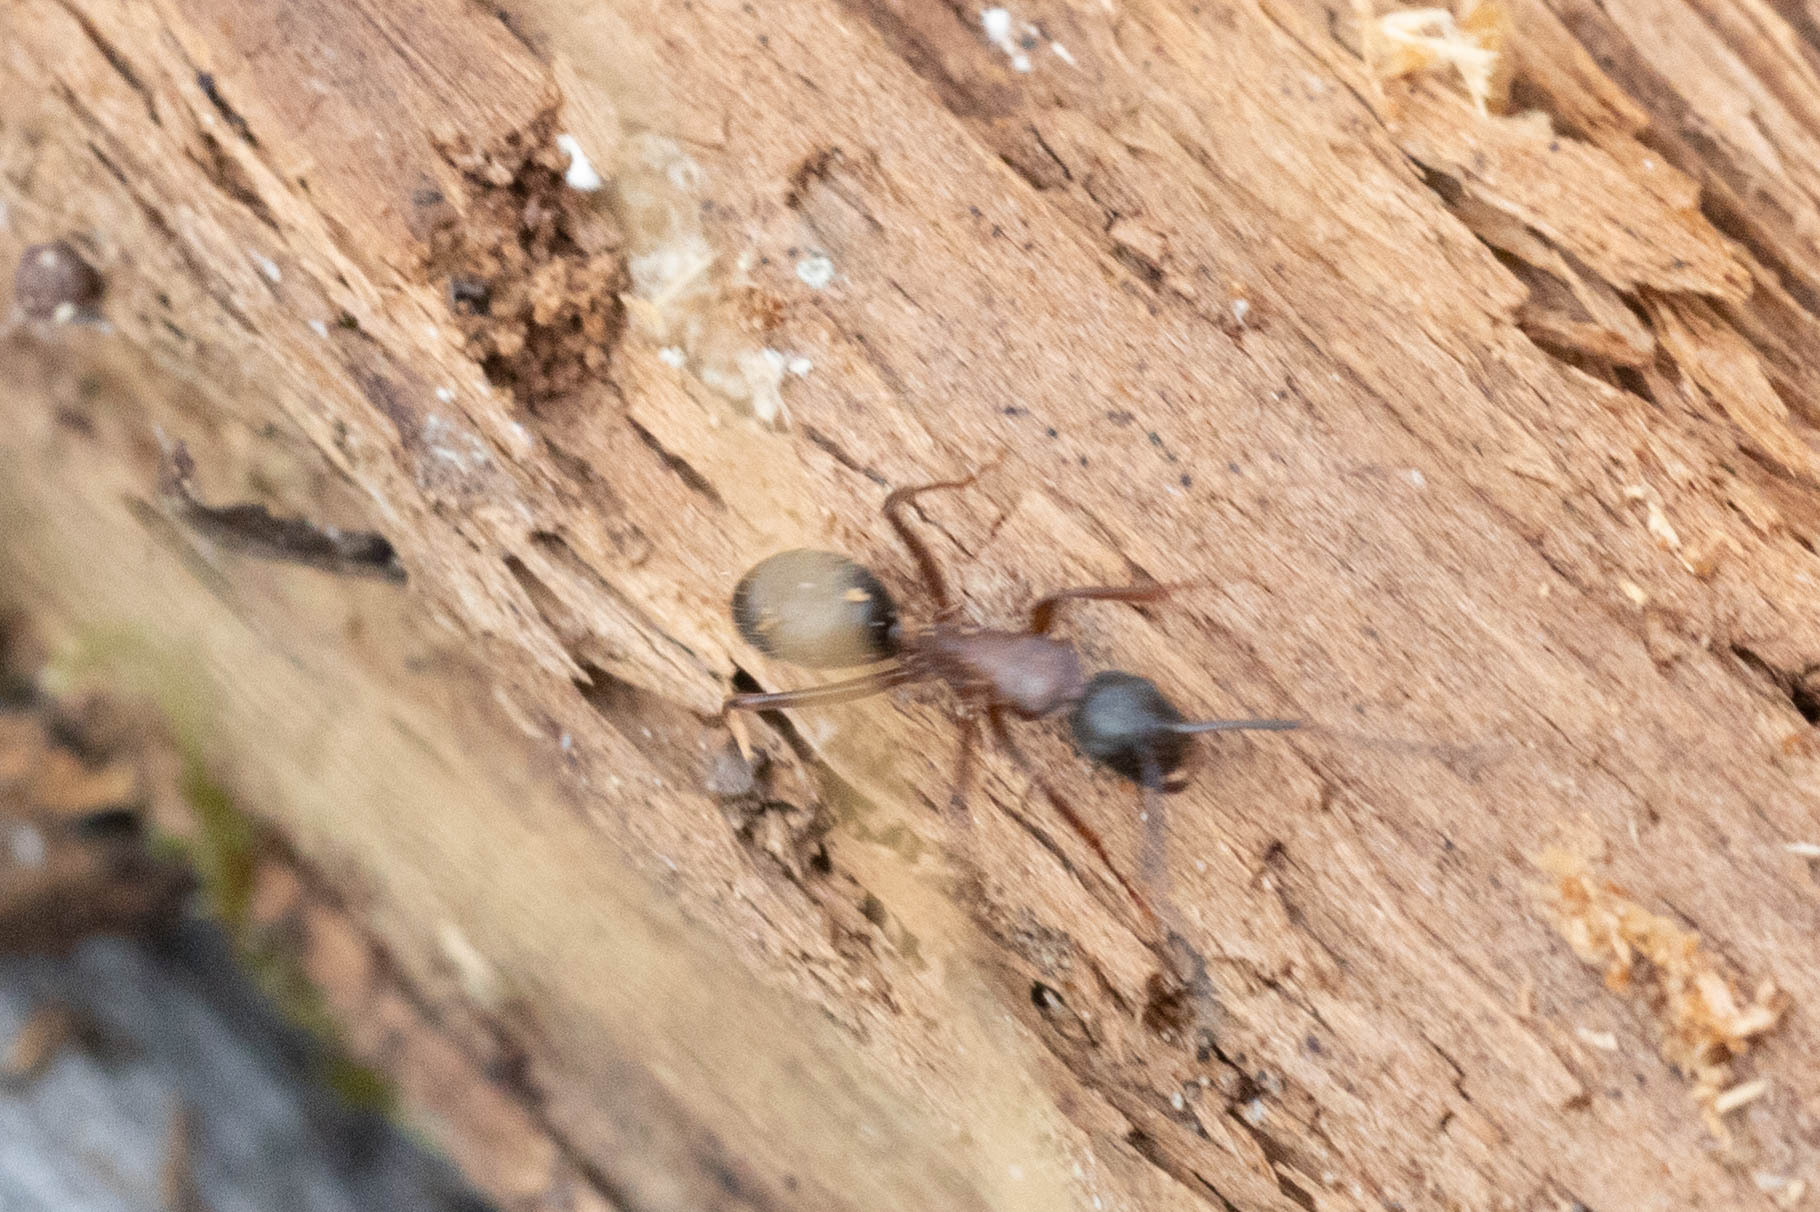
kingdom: Animalia
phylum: Arthropoda
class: Insecta
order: Hymenoptera
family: Formicidae
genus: Camponotus
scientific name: Camponotus vicinus
